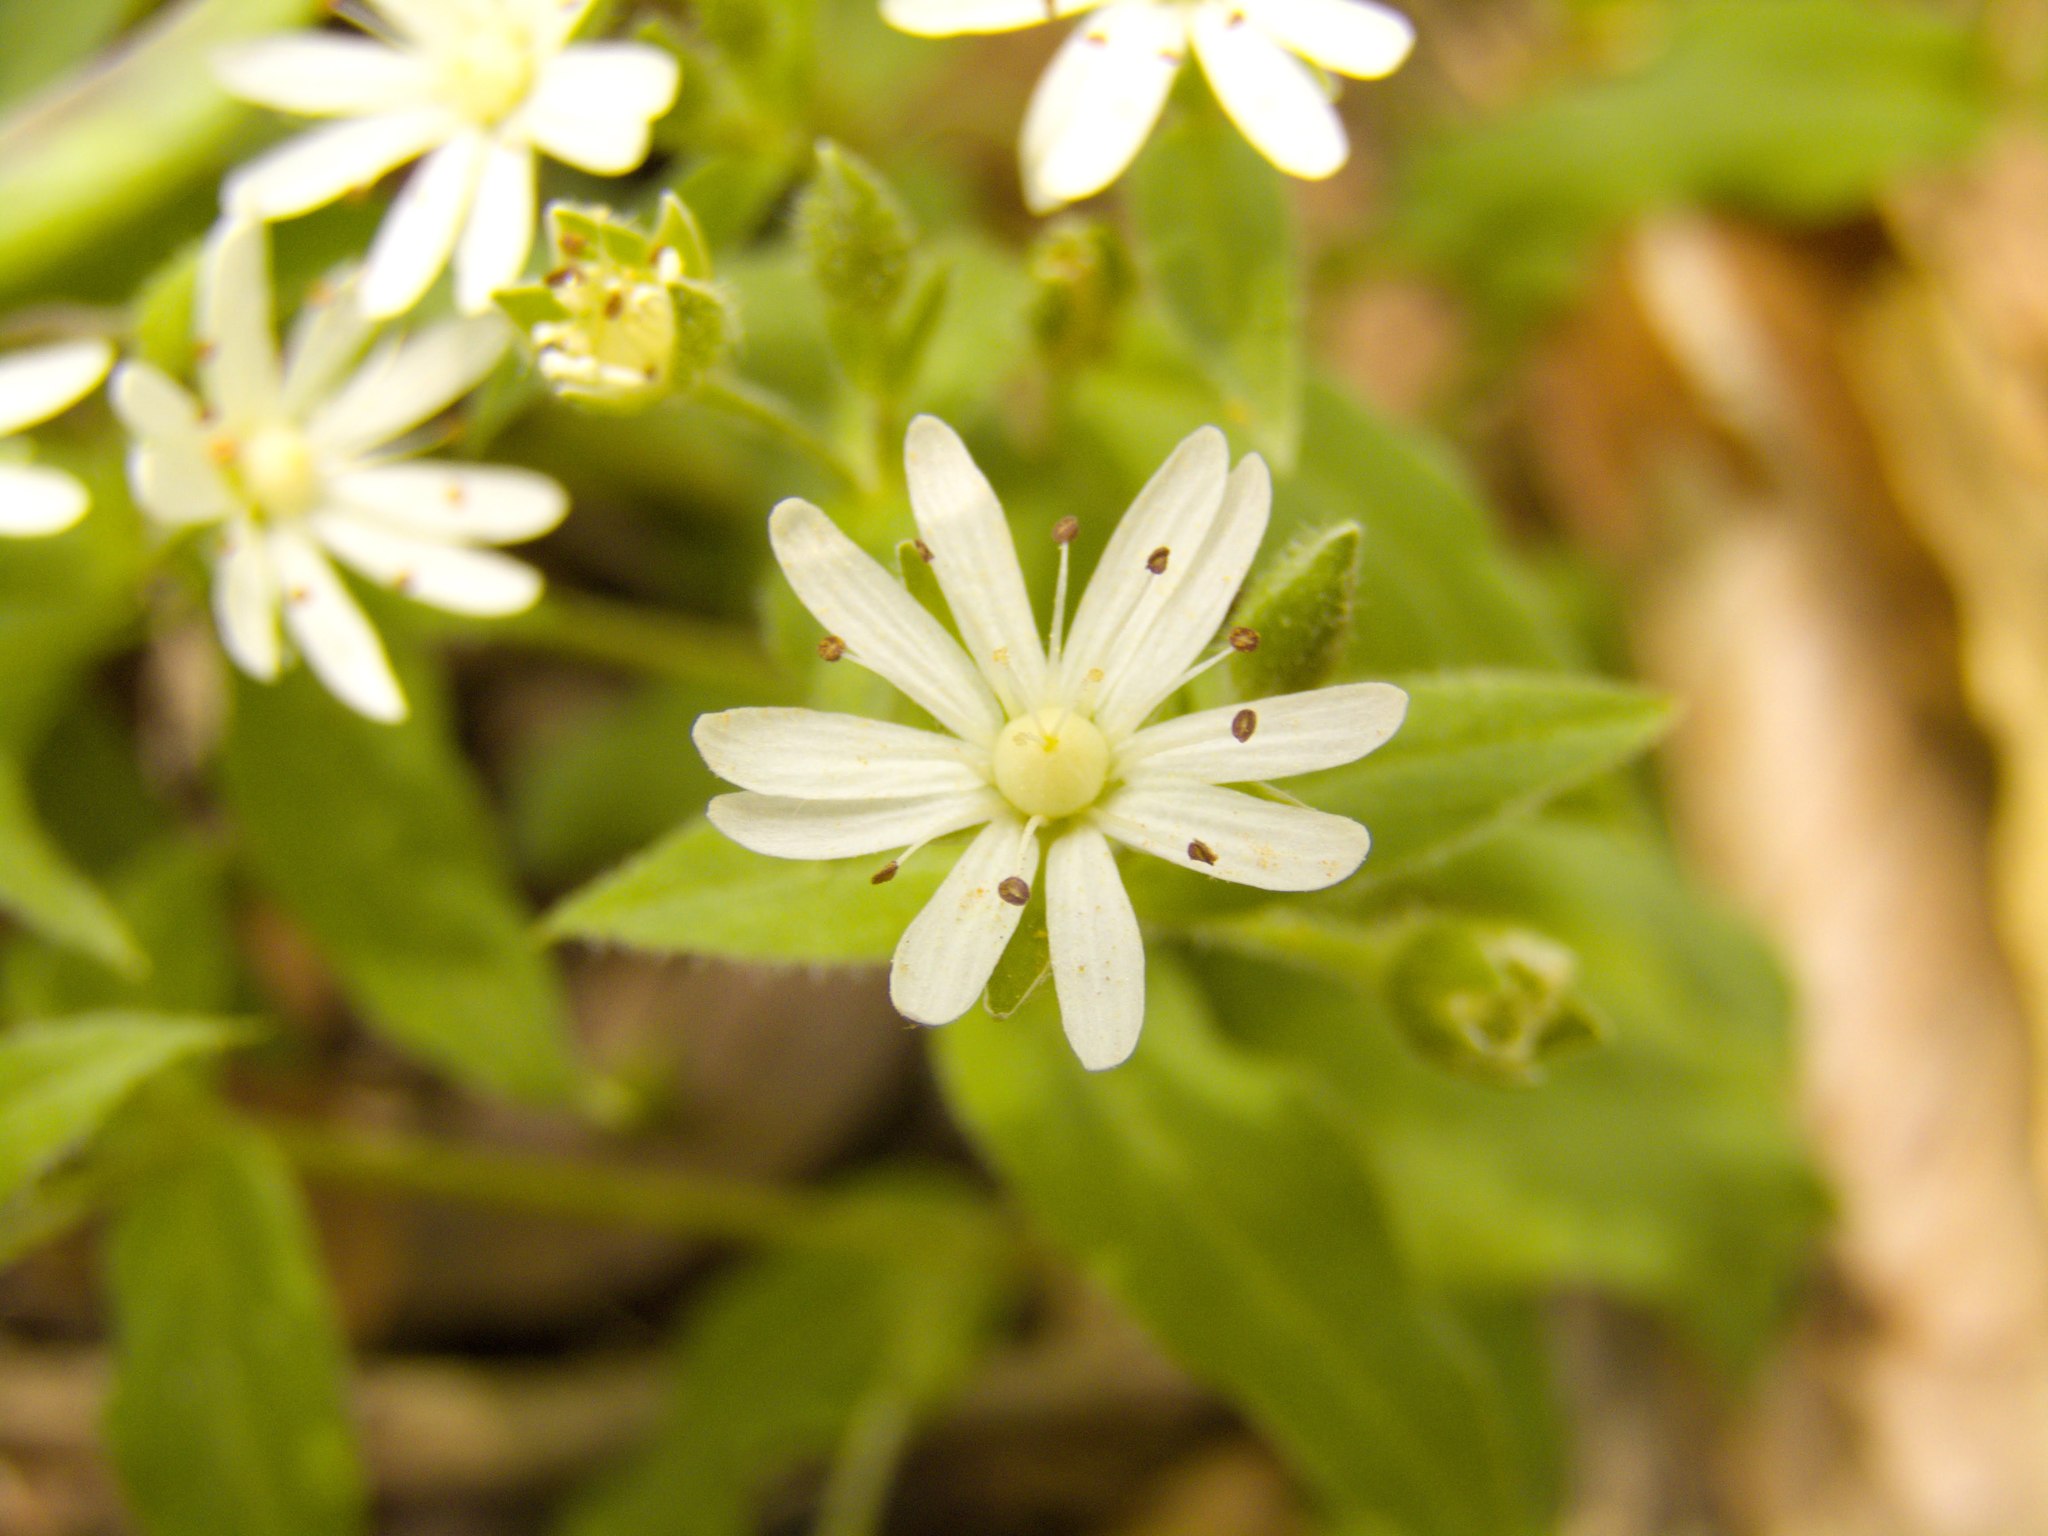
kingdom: Plantae
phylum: Tracheophyta
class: Magnoliopsida
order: Caryophyllales
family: Caryophyllaceae
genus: Stellaria
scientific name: Stellaria pubera
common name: Star chickweed
